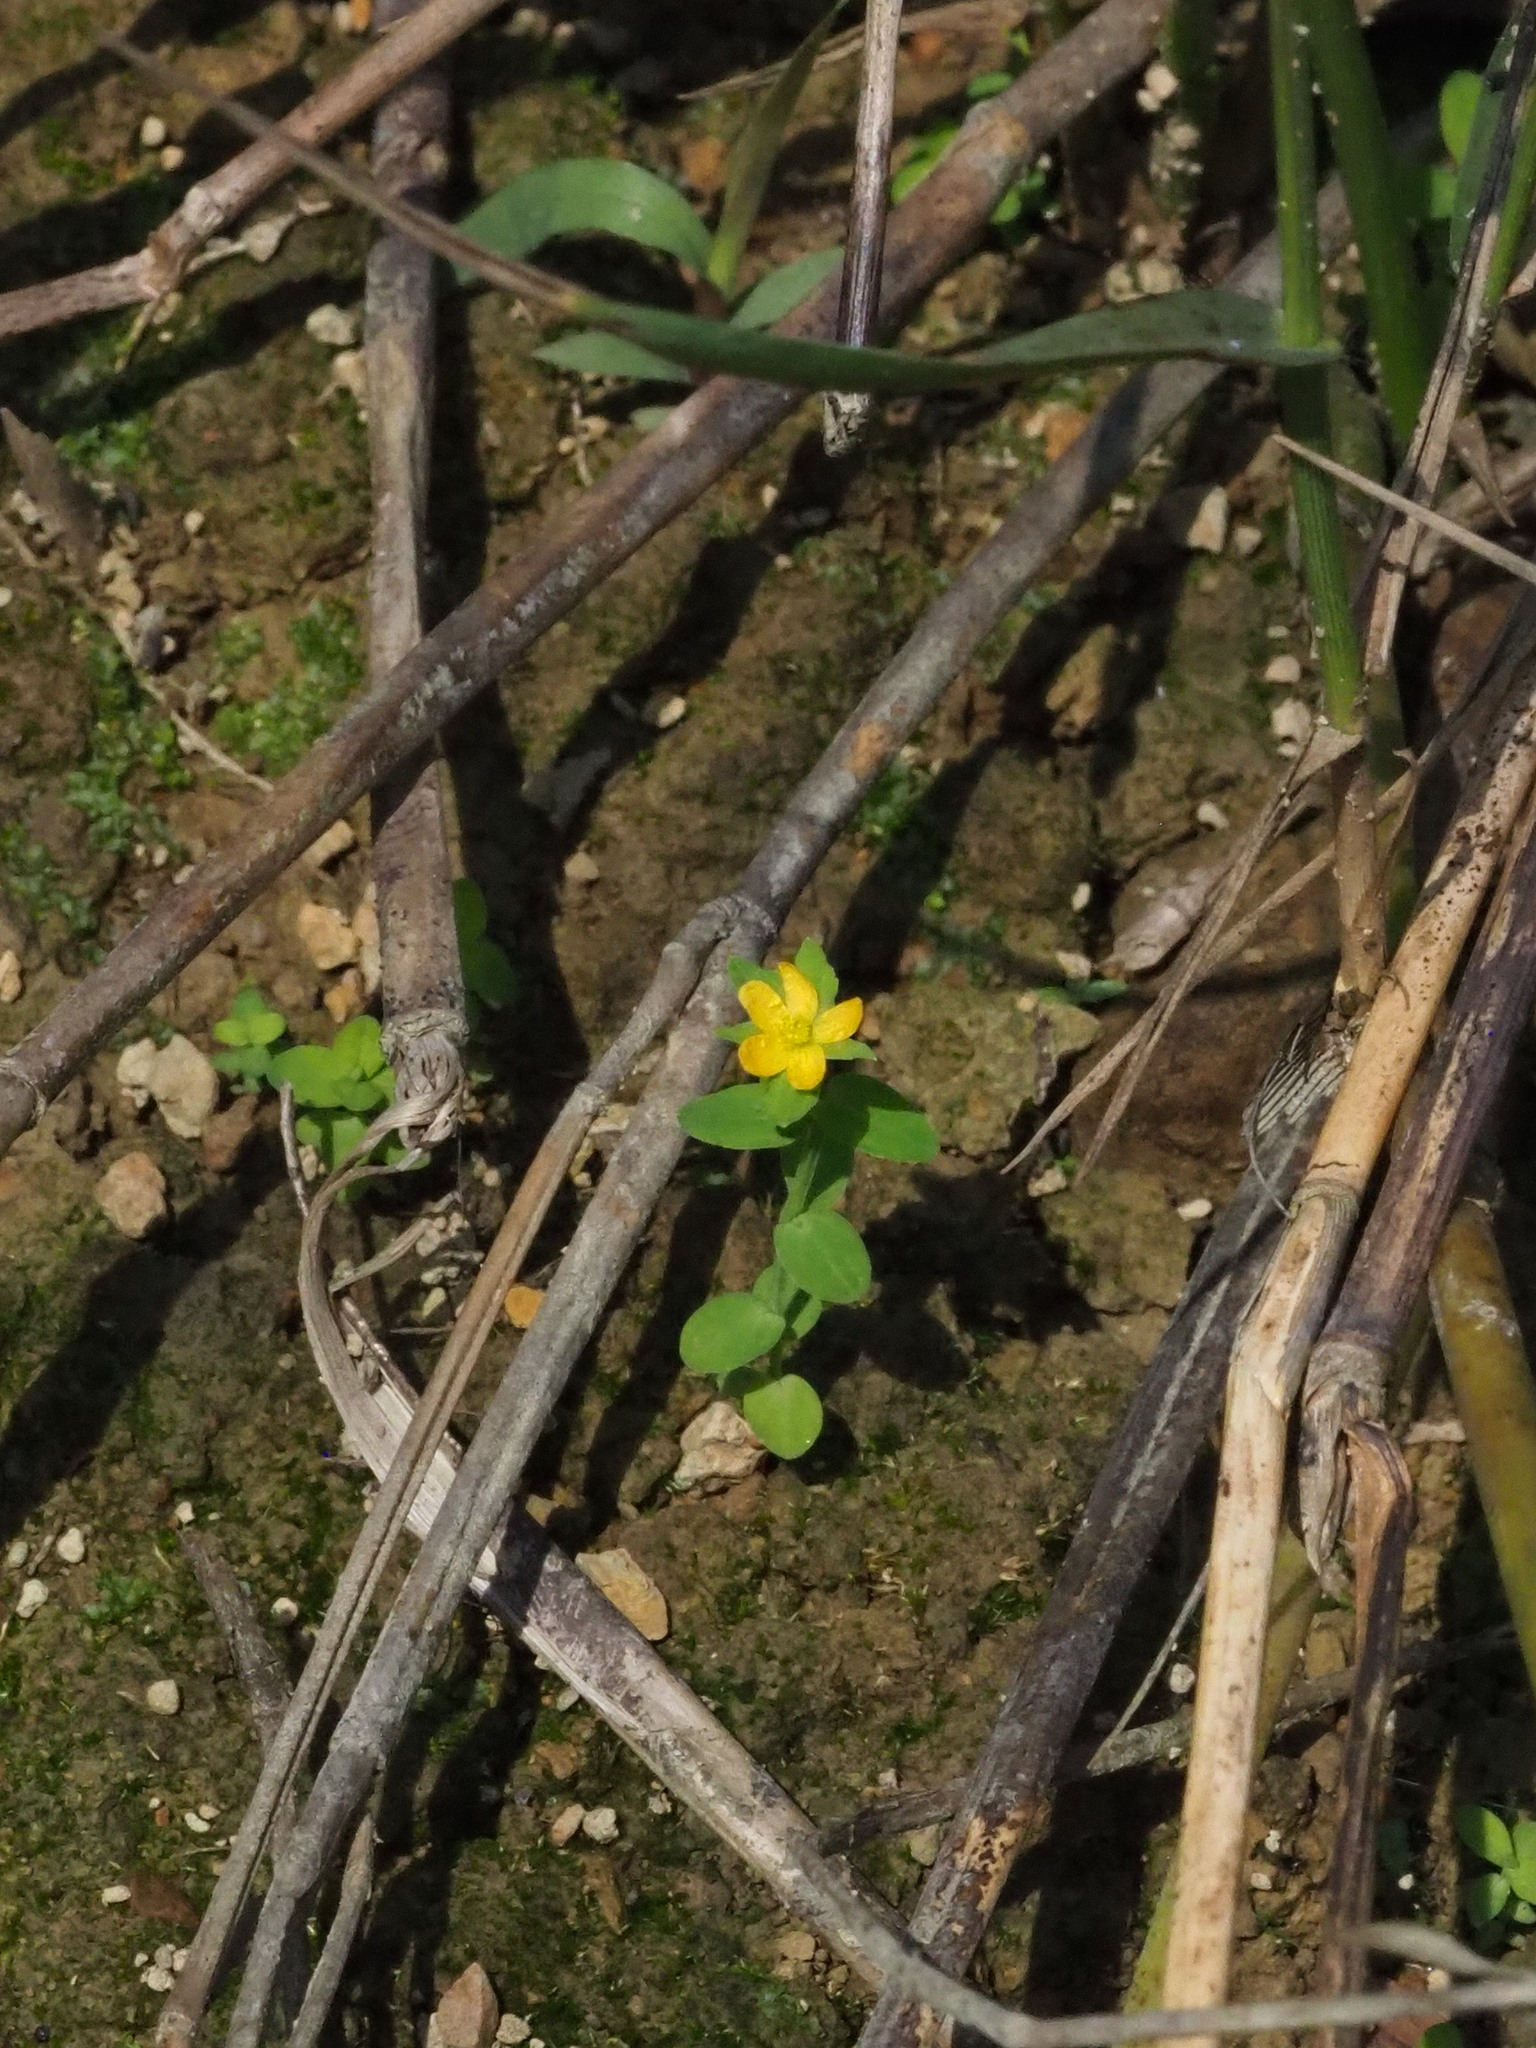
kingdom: Plantae
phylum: Tracheophyta
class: Magnoliopsida
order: Malpighiales
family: Hypericaceae
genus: Hypericum
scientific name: Hypericum japonicum
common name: Matted st. john's-wort
